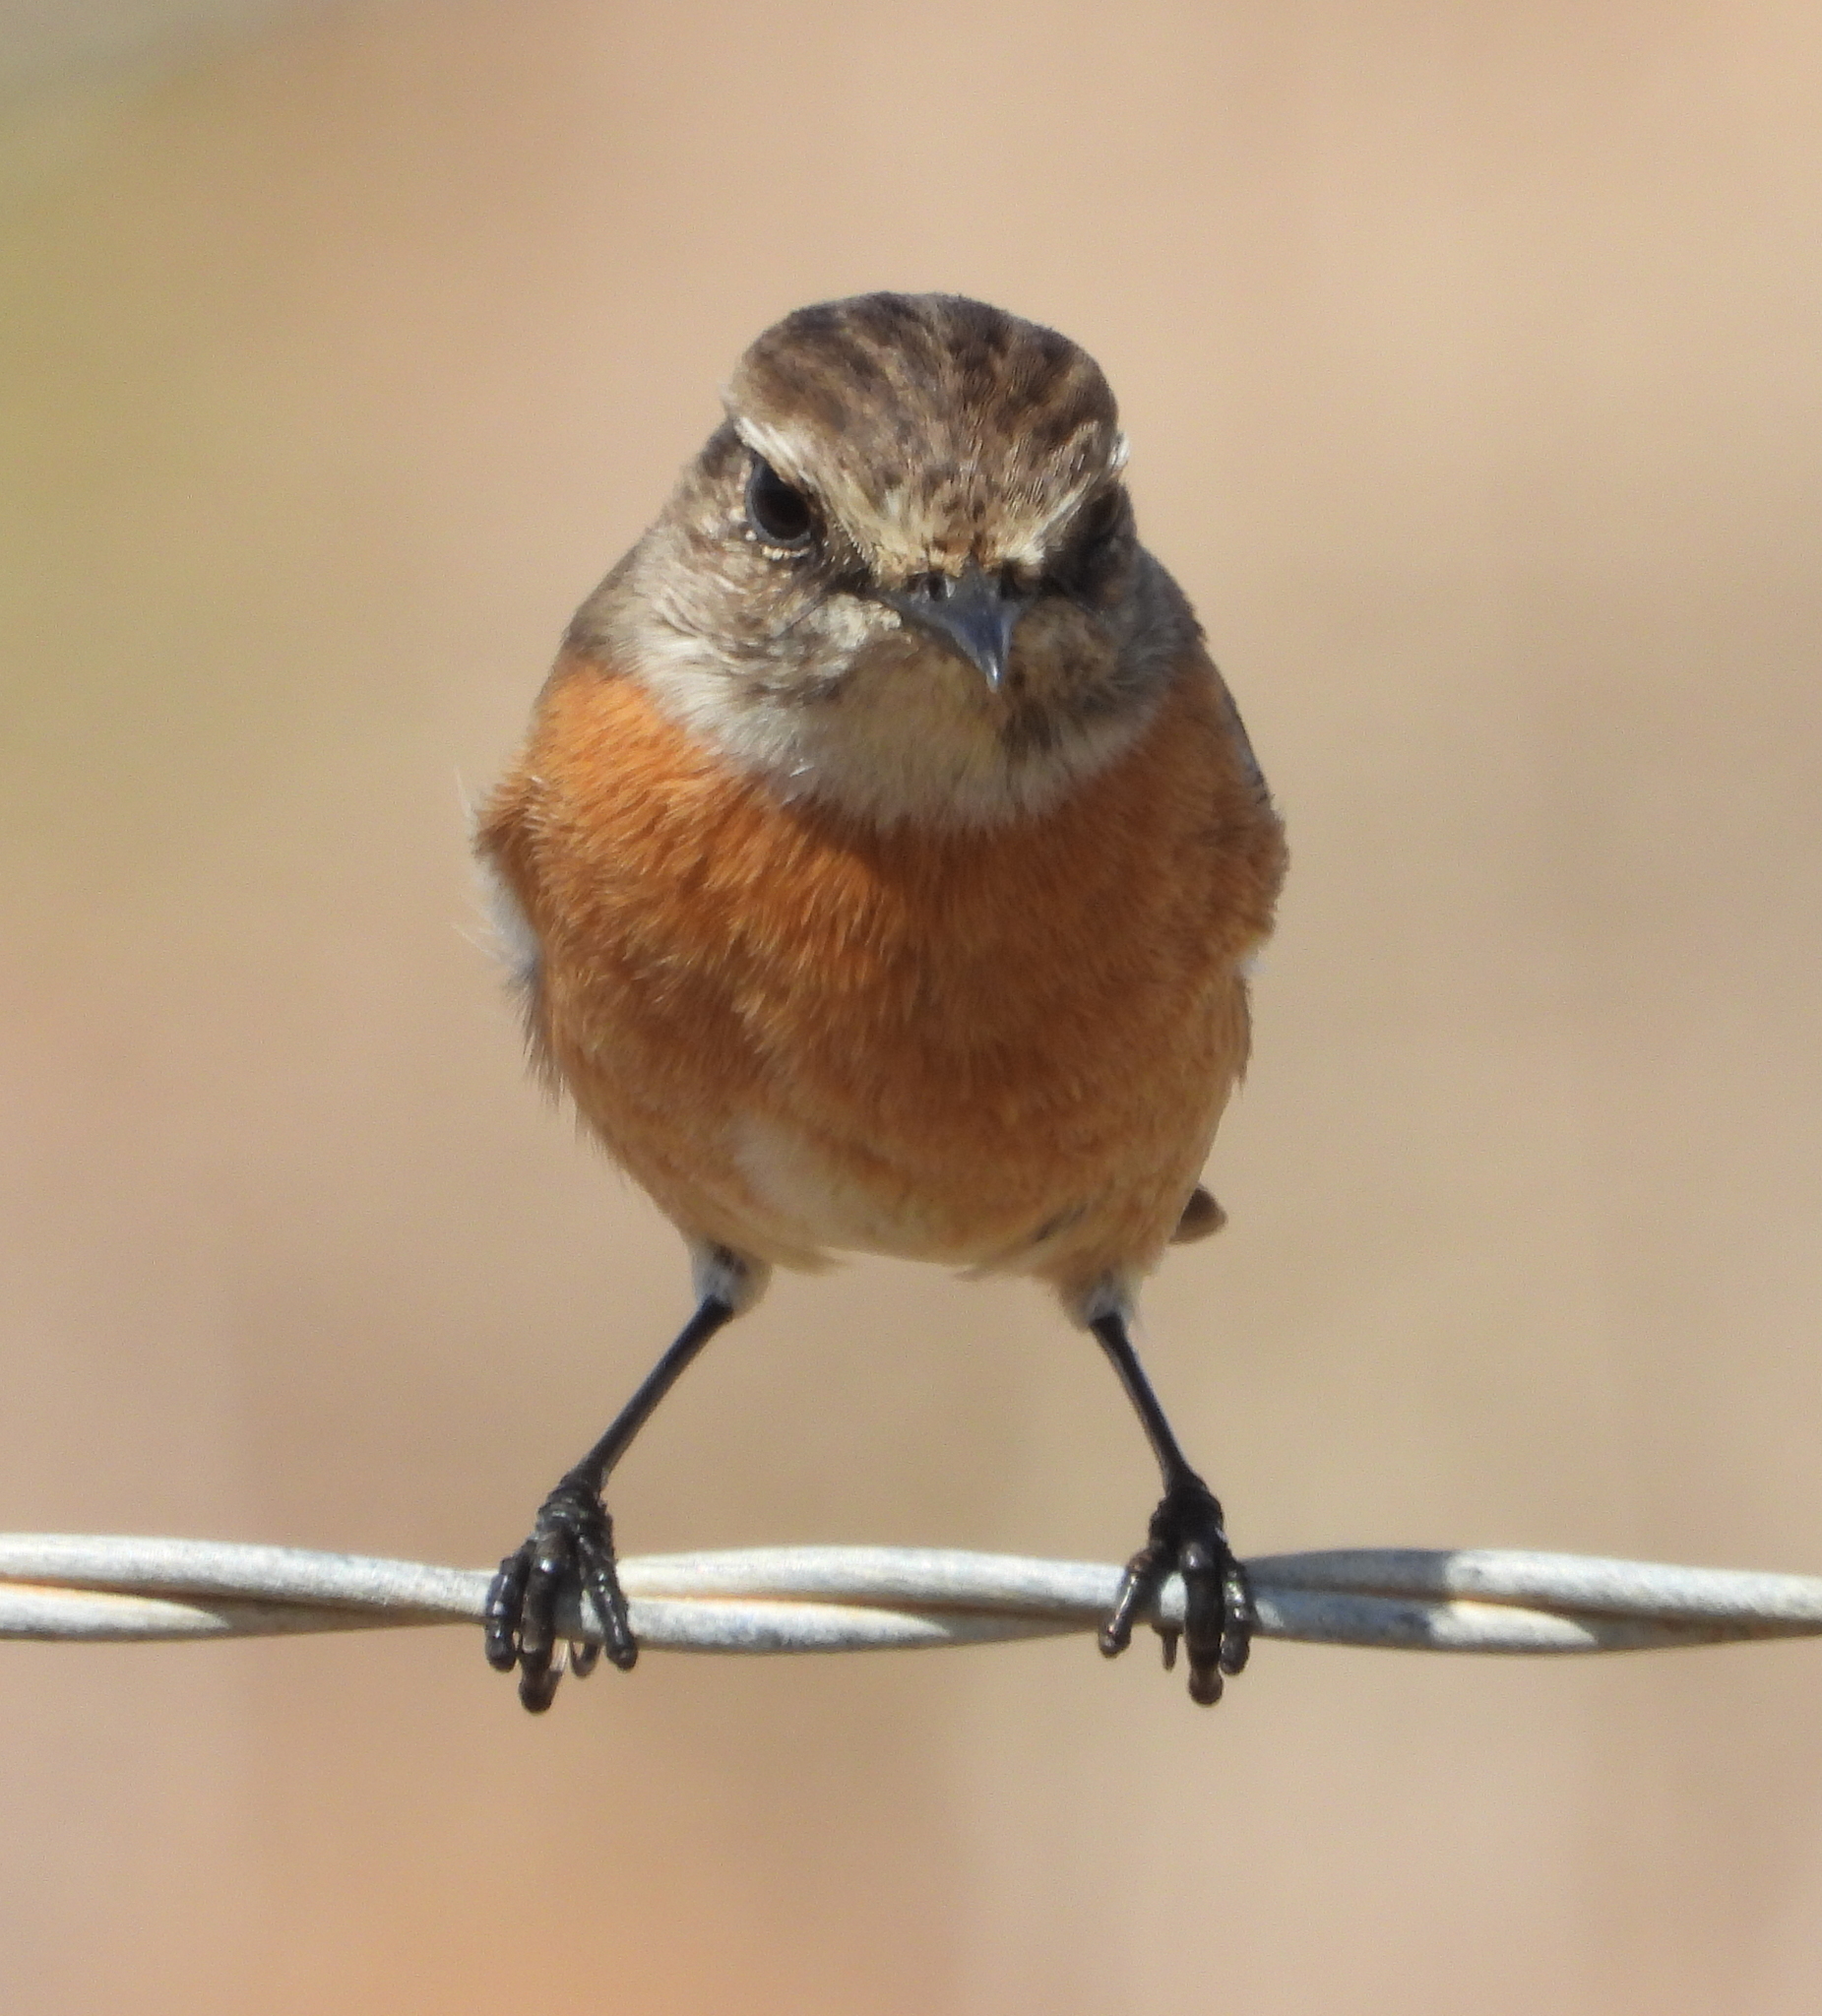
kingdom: Animalia
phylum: Chordata
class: Aves
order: Passeriformes
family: Muscicapidae
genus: Saxicola
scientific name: Saxicola torquatus
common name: African stonechat
